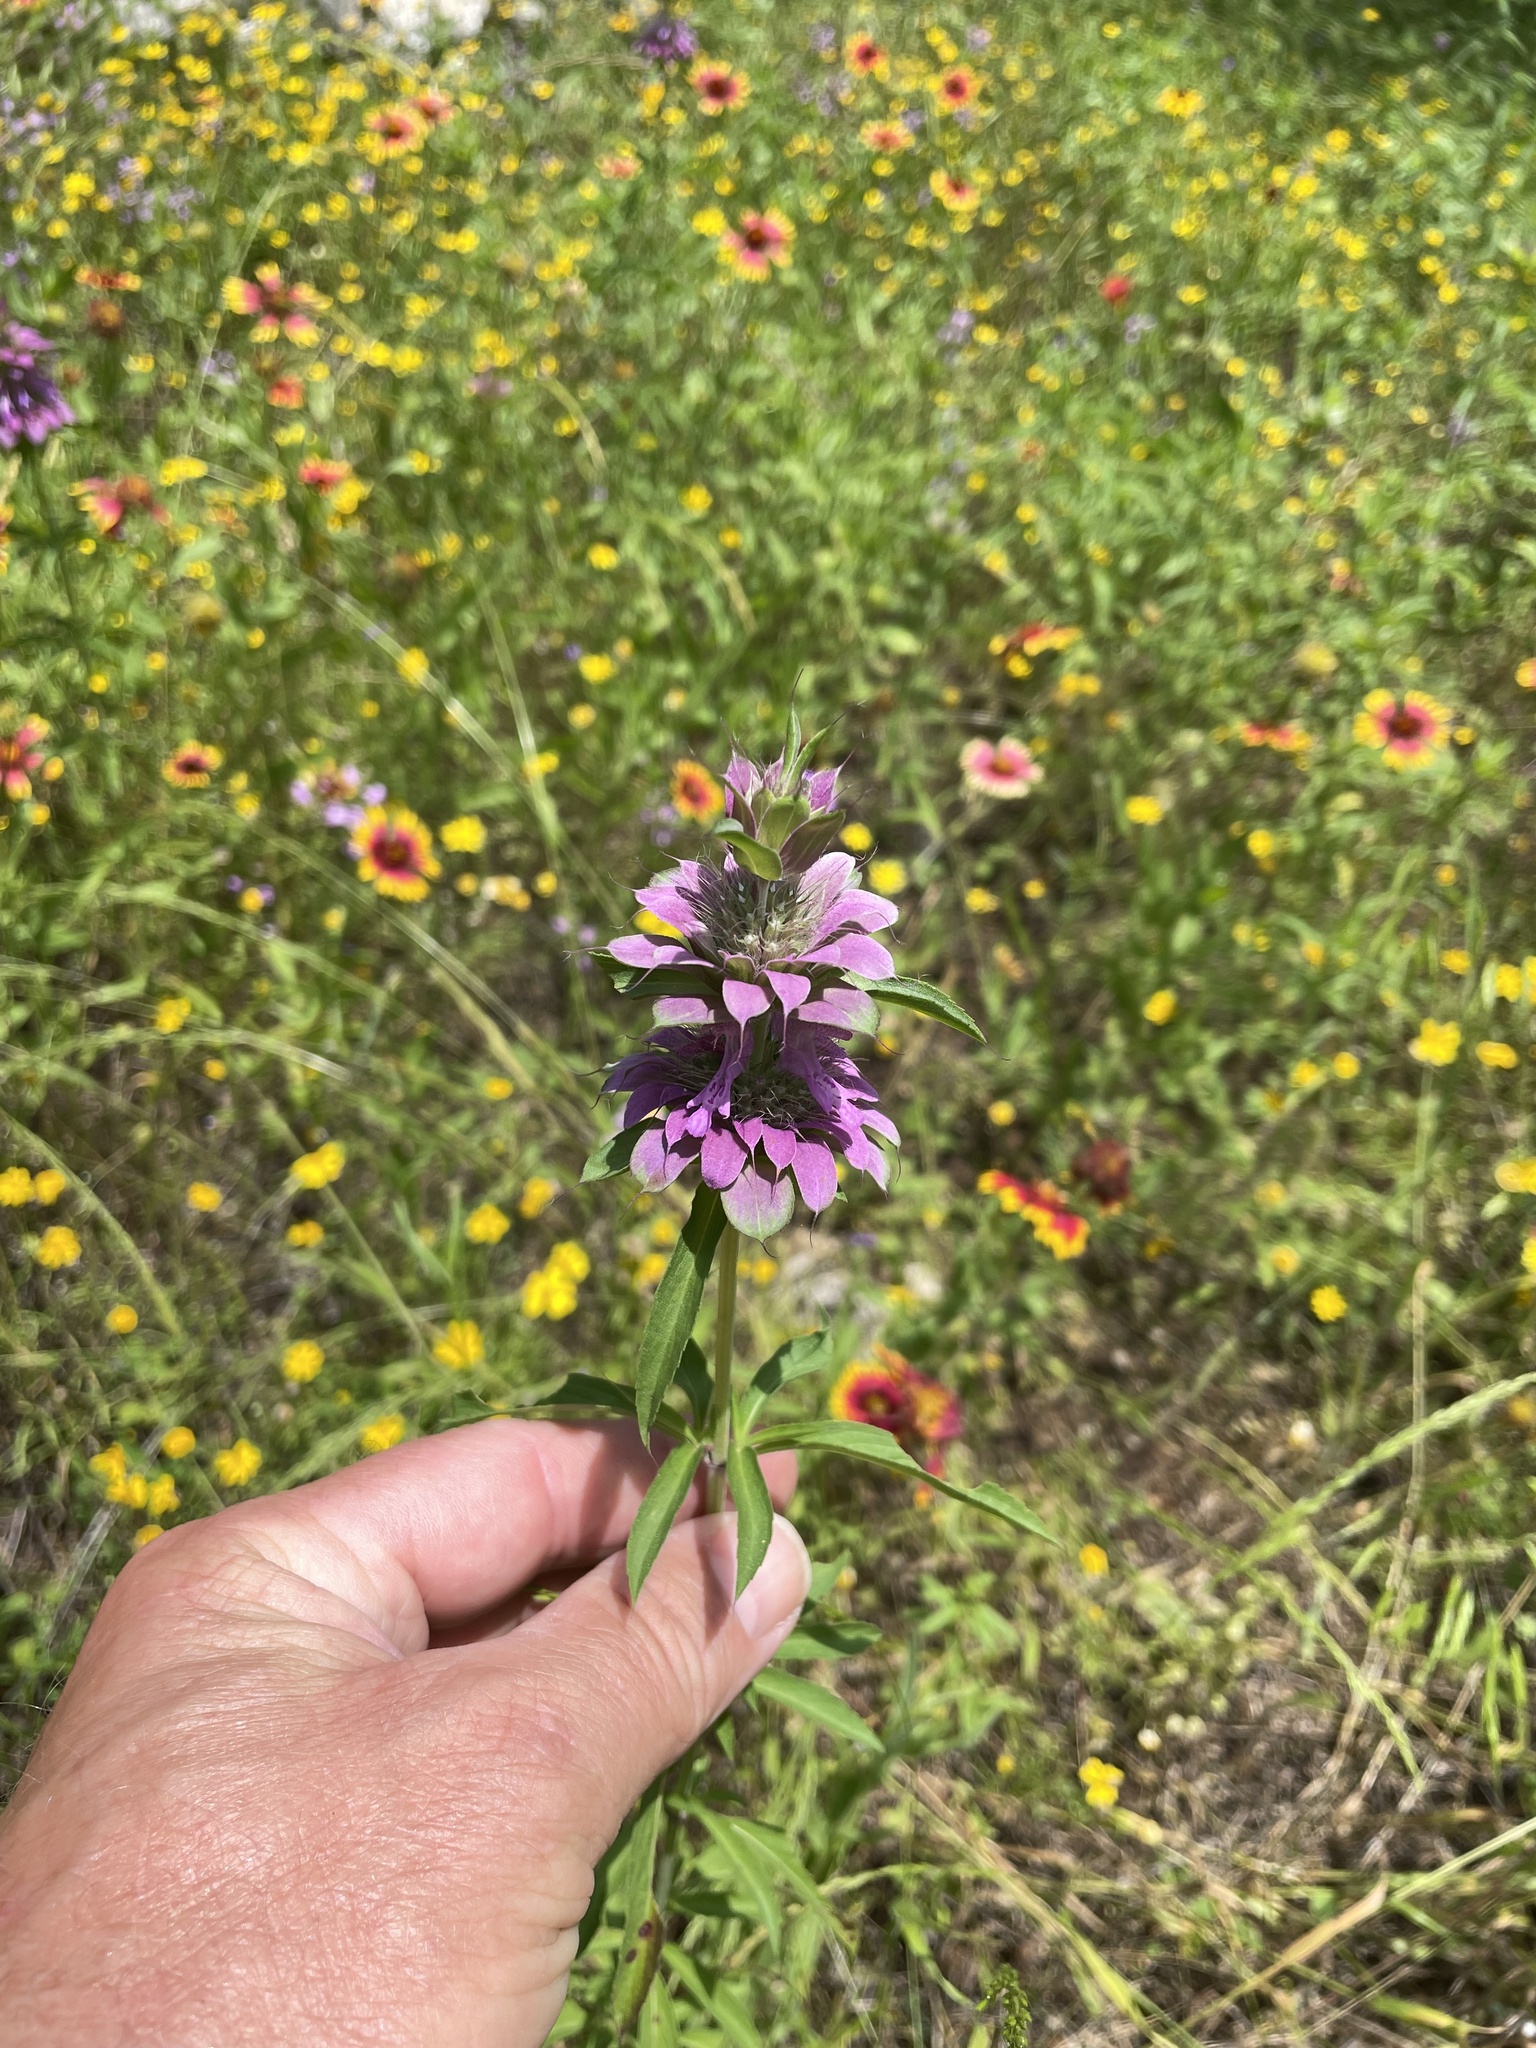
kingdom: Plantae
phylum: Tracheophyta
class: Magnoliopsida
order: Lamiales
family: Lamiaceae
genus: Monarda
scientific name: Monarda citriodora
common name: Lemon beebalm
